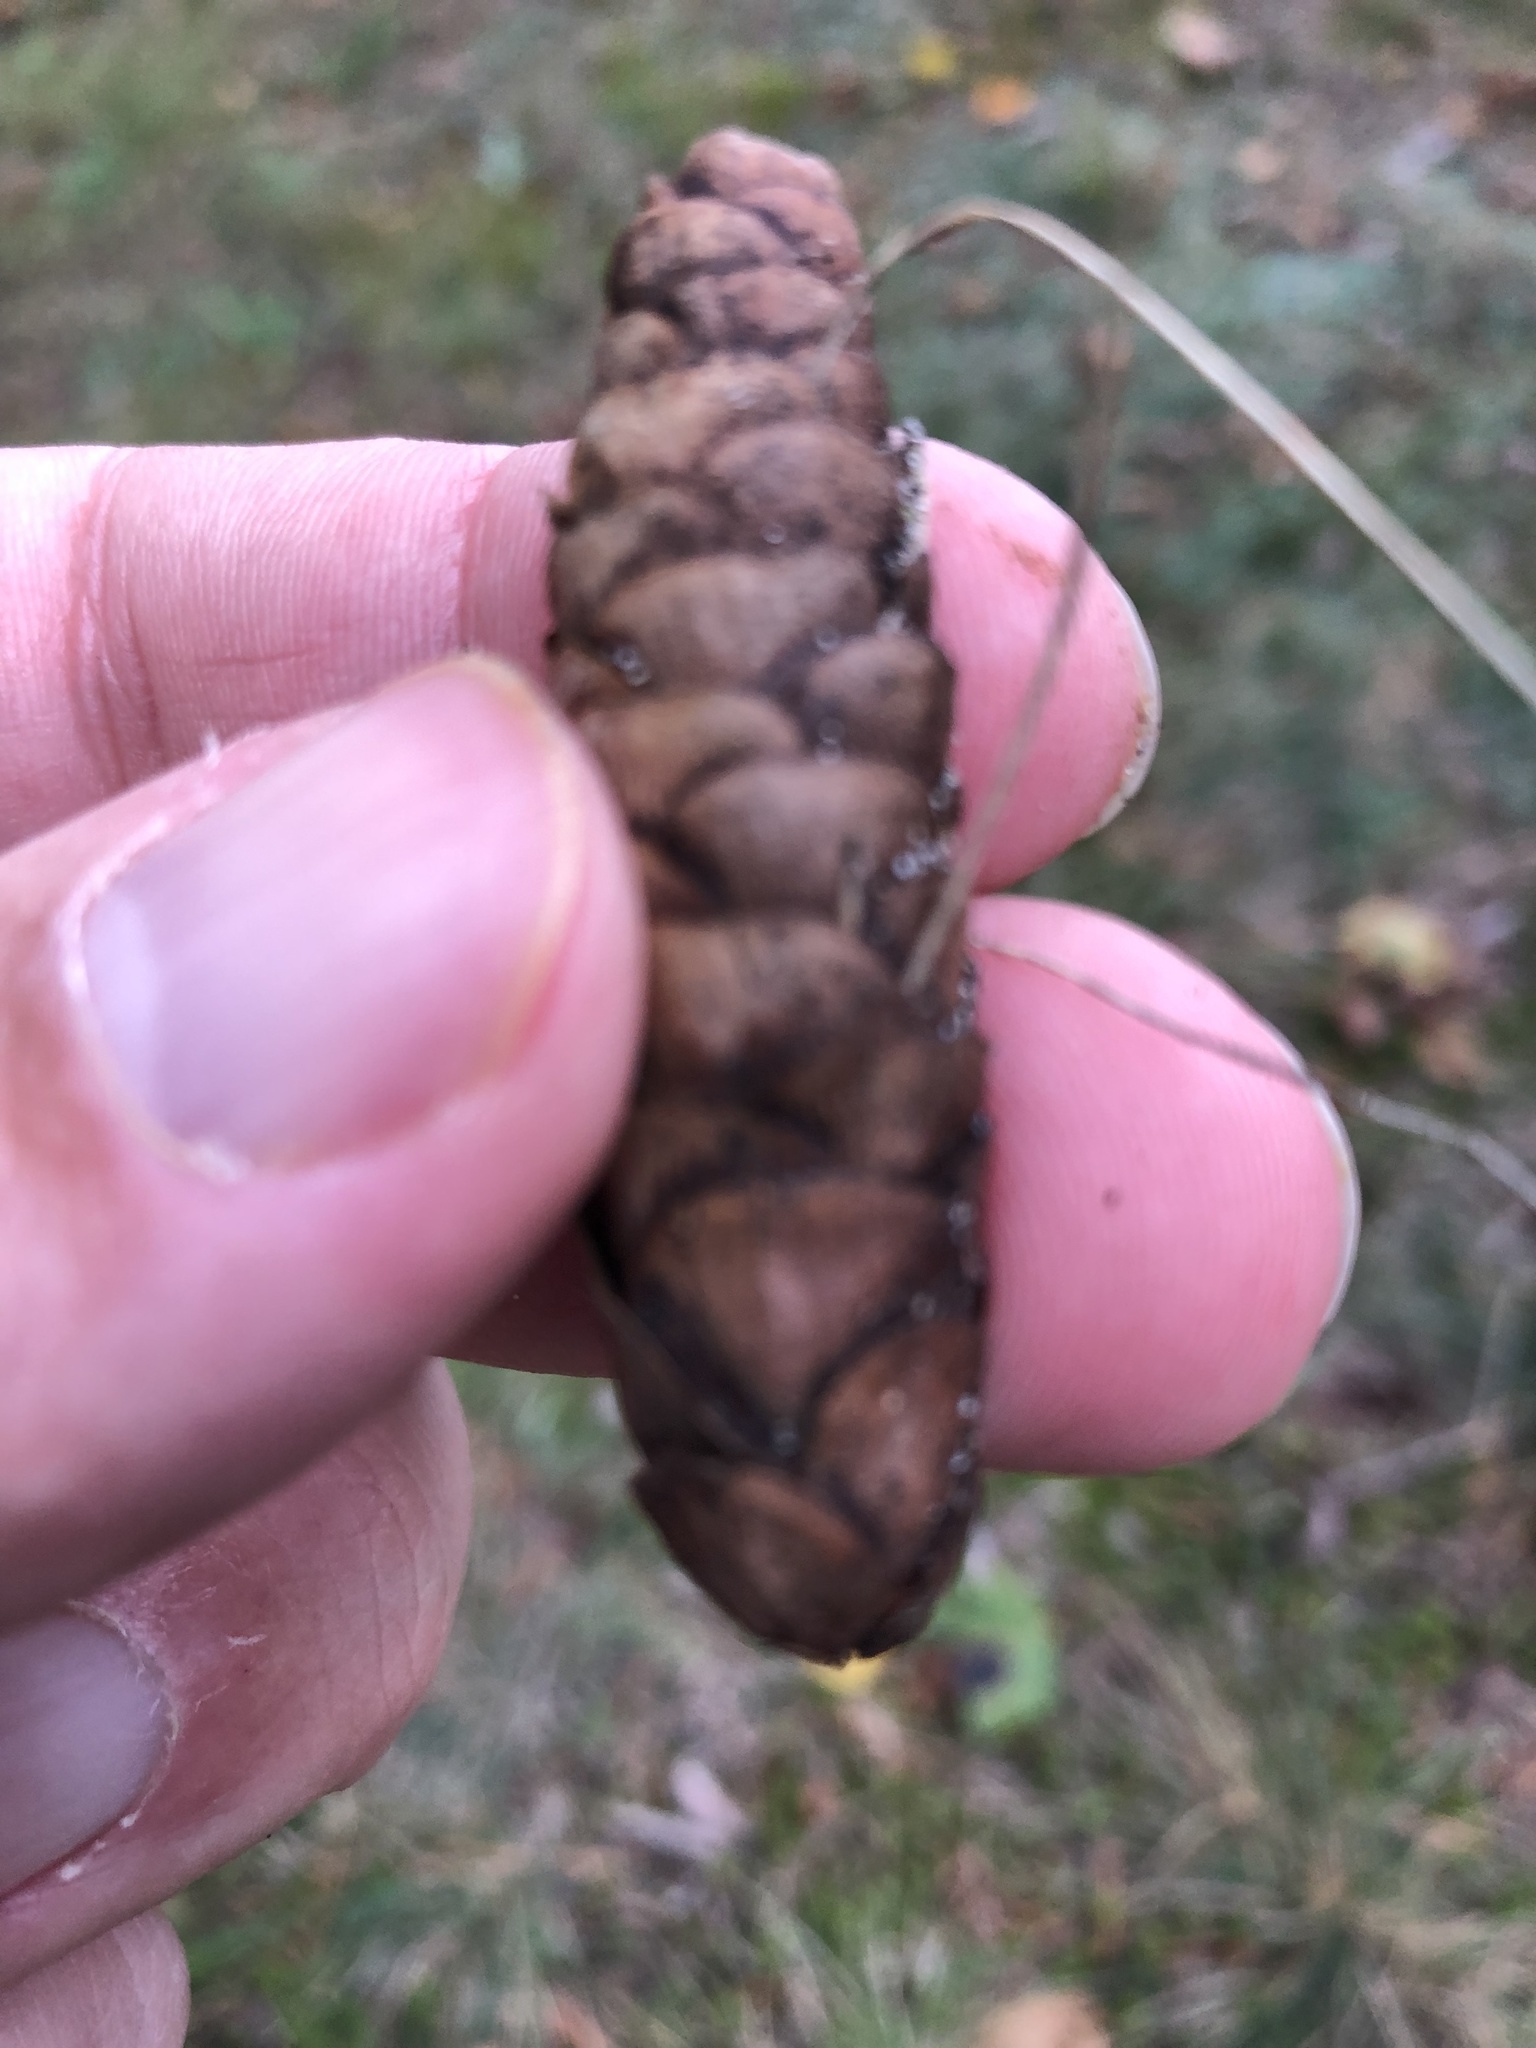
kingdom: Plantae
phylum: Tracheophyta
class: Pinopsida
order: Pinales
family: Pinaceae
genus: Picea
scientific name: Picea glauca
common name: White spruce
